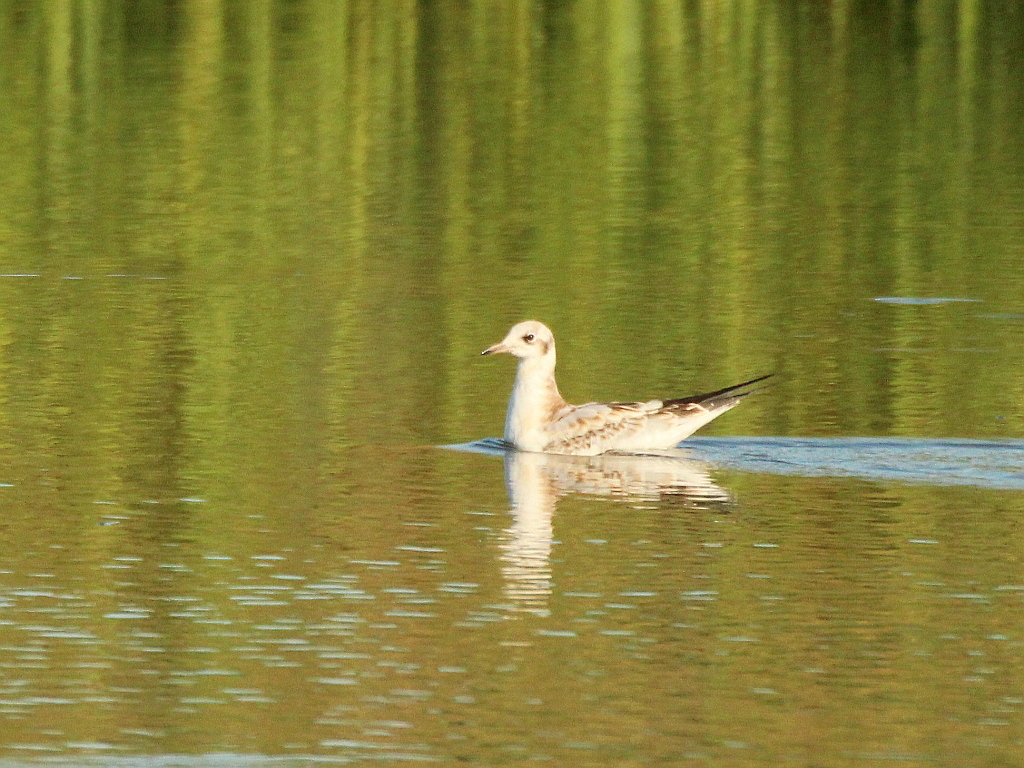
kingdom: Animalia
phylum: Chordata
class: Aves
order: Charadriiformes
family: Laridae
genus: Chroicocephalus
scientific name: Chroicocephalus ridibundus
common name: Black-headed gull
